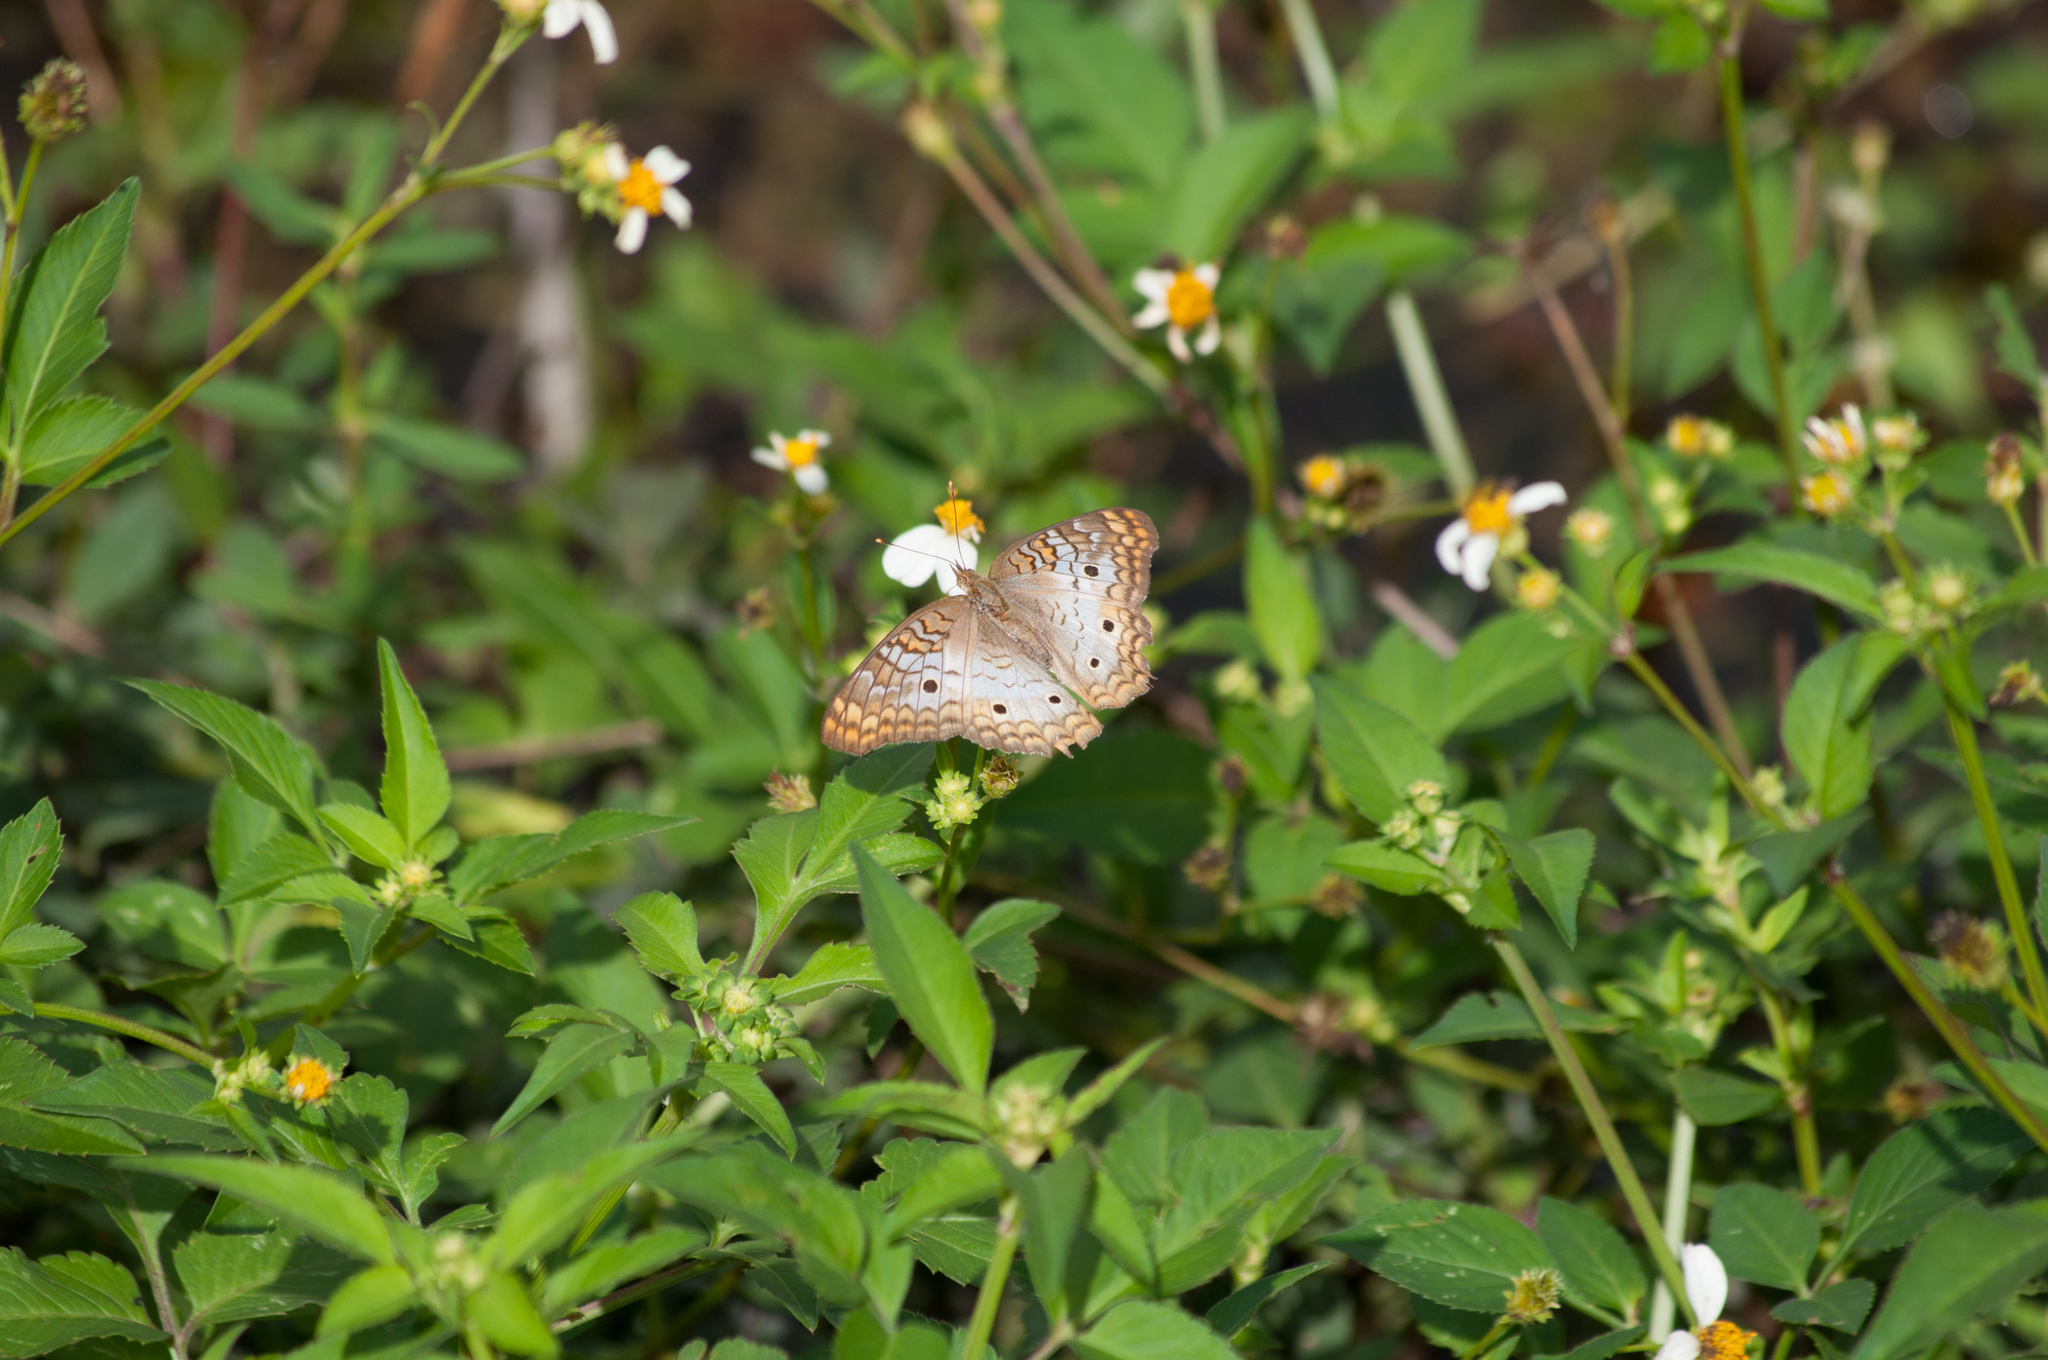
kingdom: Animalia
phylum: Arthropoda
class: Insecta
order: Lepidoptera
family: Nymphalidae
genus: Anartia
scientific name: Anartia jatrophae
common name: White peacock
